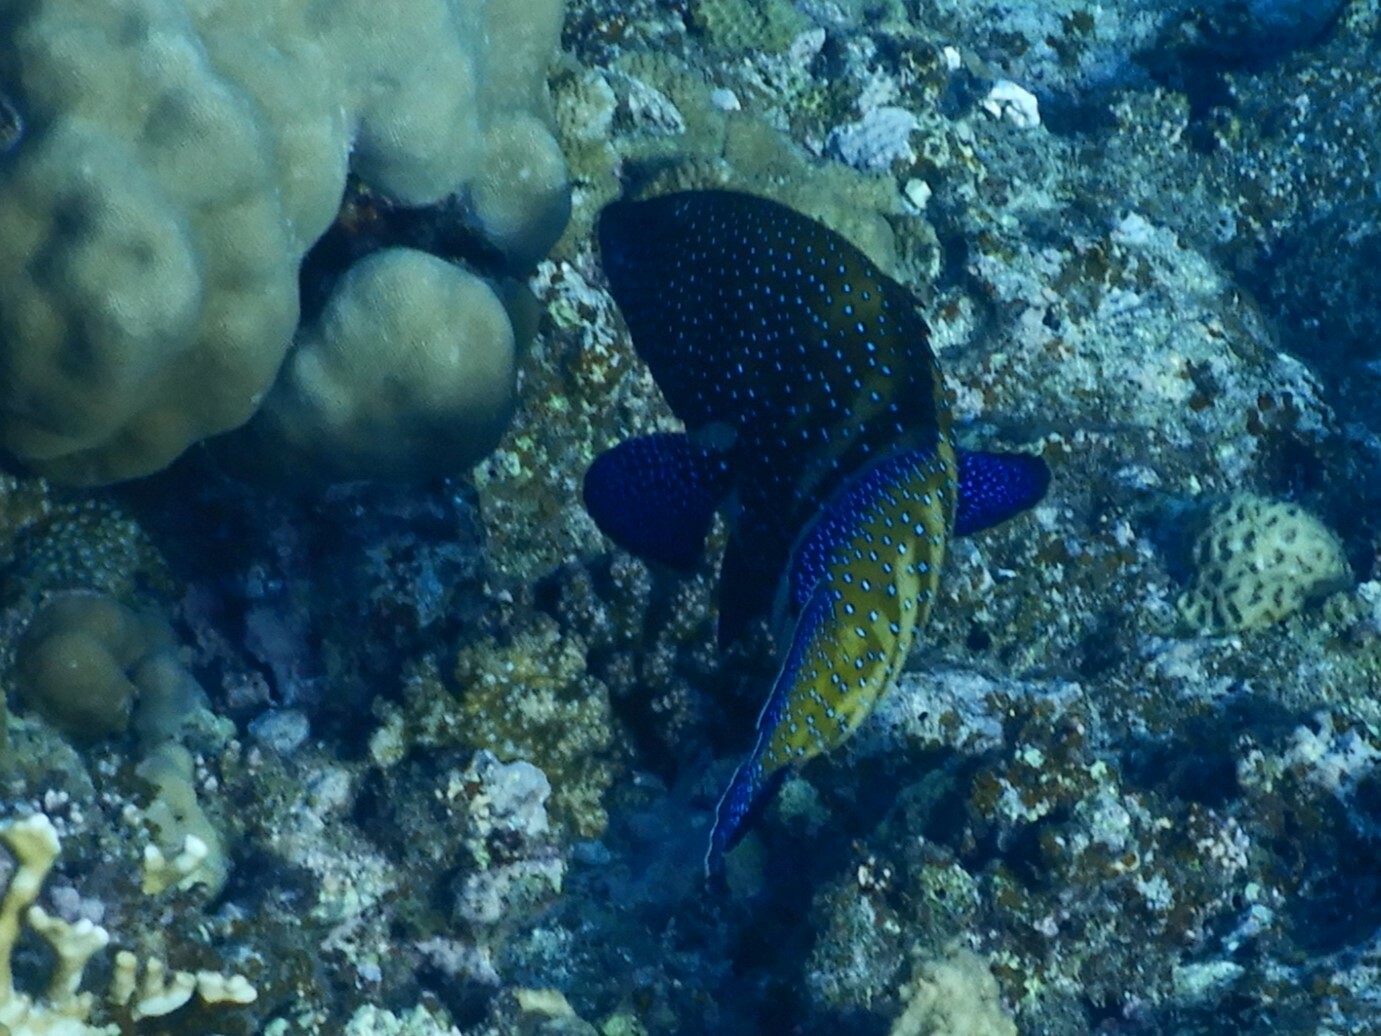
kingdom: Animalia
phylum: Chordata
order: Perciformes
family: Serranidae
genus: Cephalopholis
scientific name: Cephalopholis argus
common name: Peacock grouper
